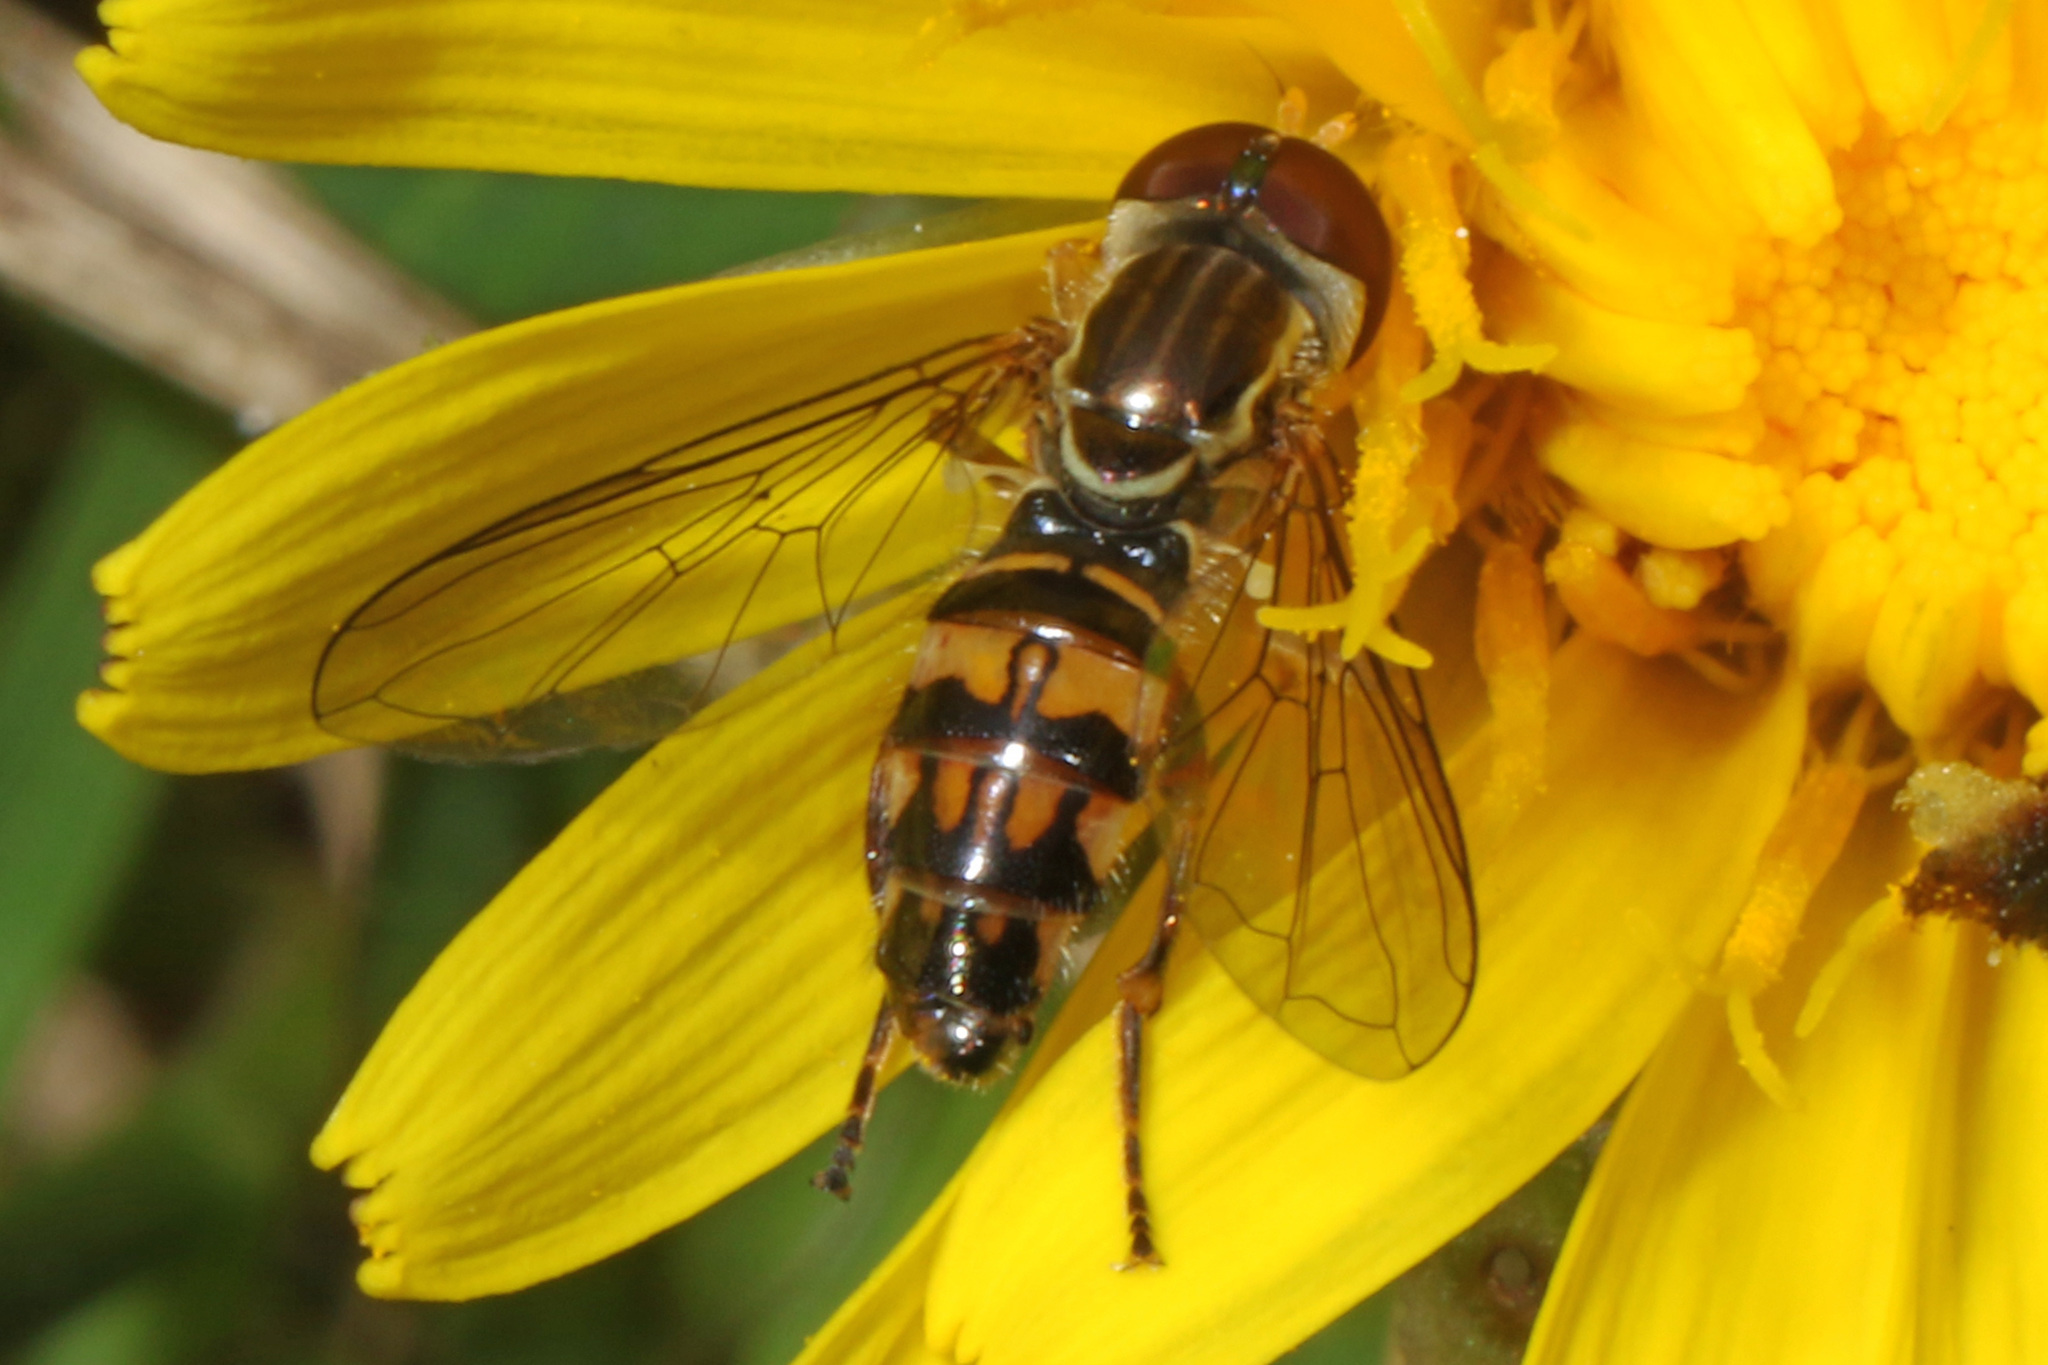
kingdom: Animalia
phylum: Arthropoda
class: Insecta
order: Diptera
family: Syrphidae
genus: Toxomerus
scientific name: Toxomerus geminatus
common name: Eastern calligrapher
